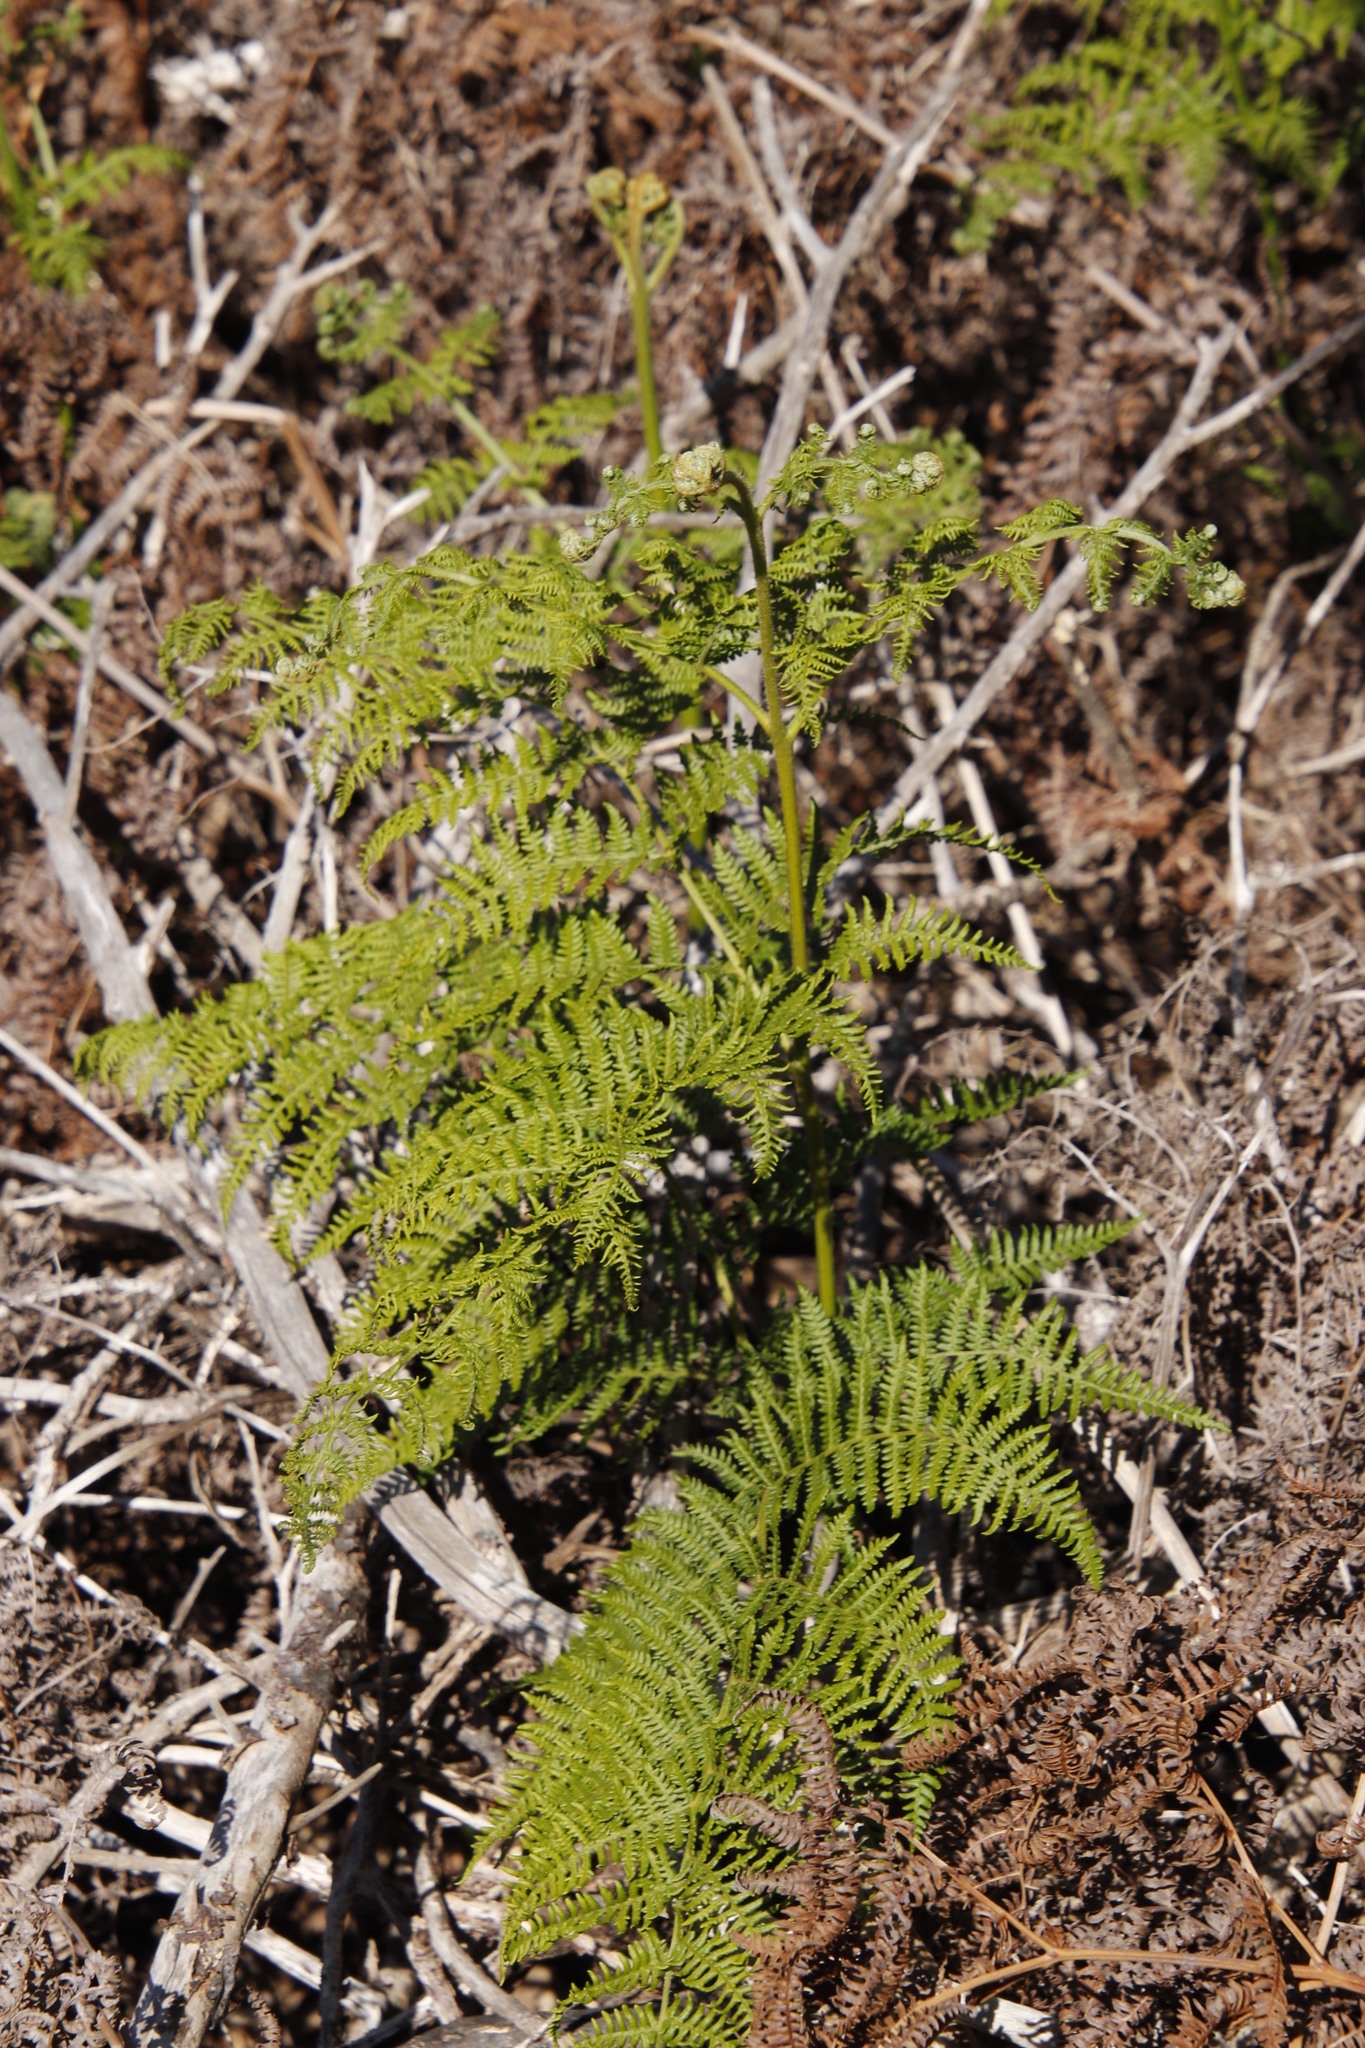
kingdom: Plantae
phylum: Tracheophyta
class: Polypodiopsida
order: Polypodiales
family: Dennstaedtiaceae
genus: Pteridium
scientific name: Pteridium aquilinum
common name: Bracken
